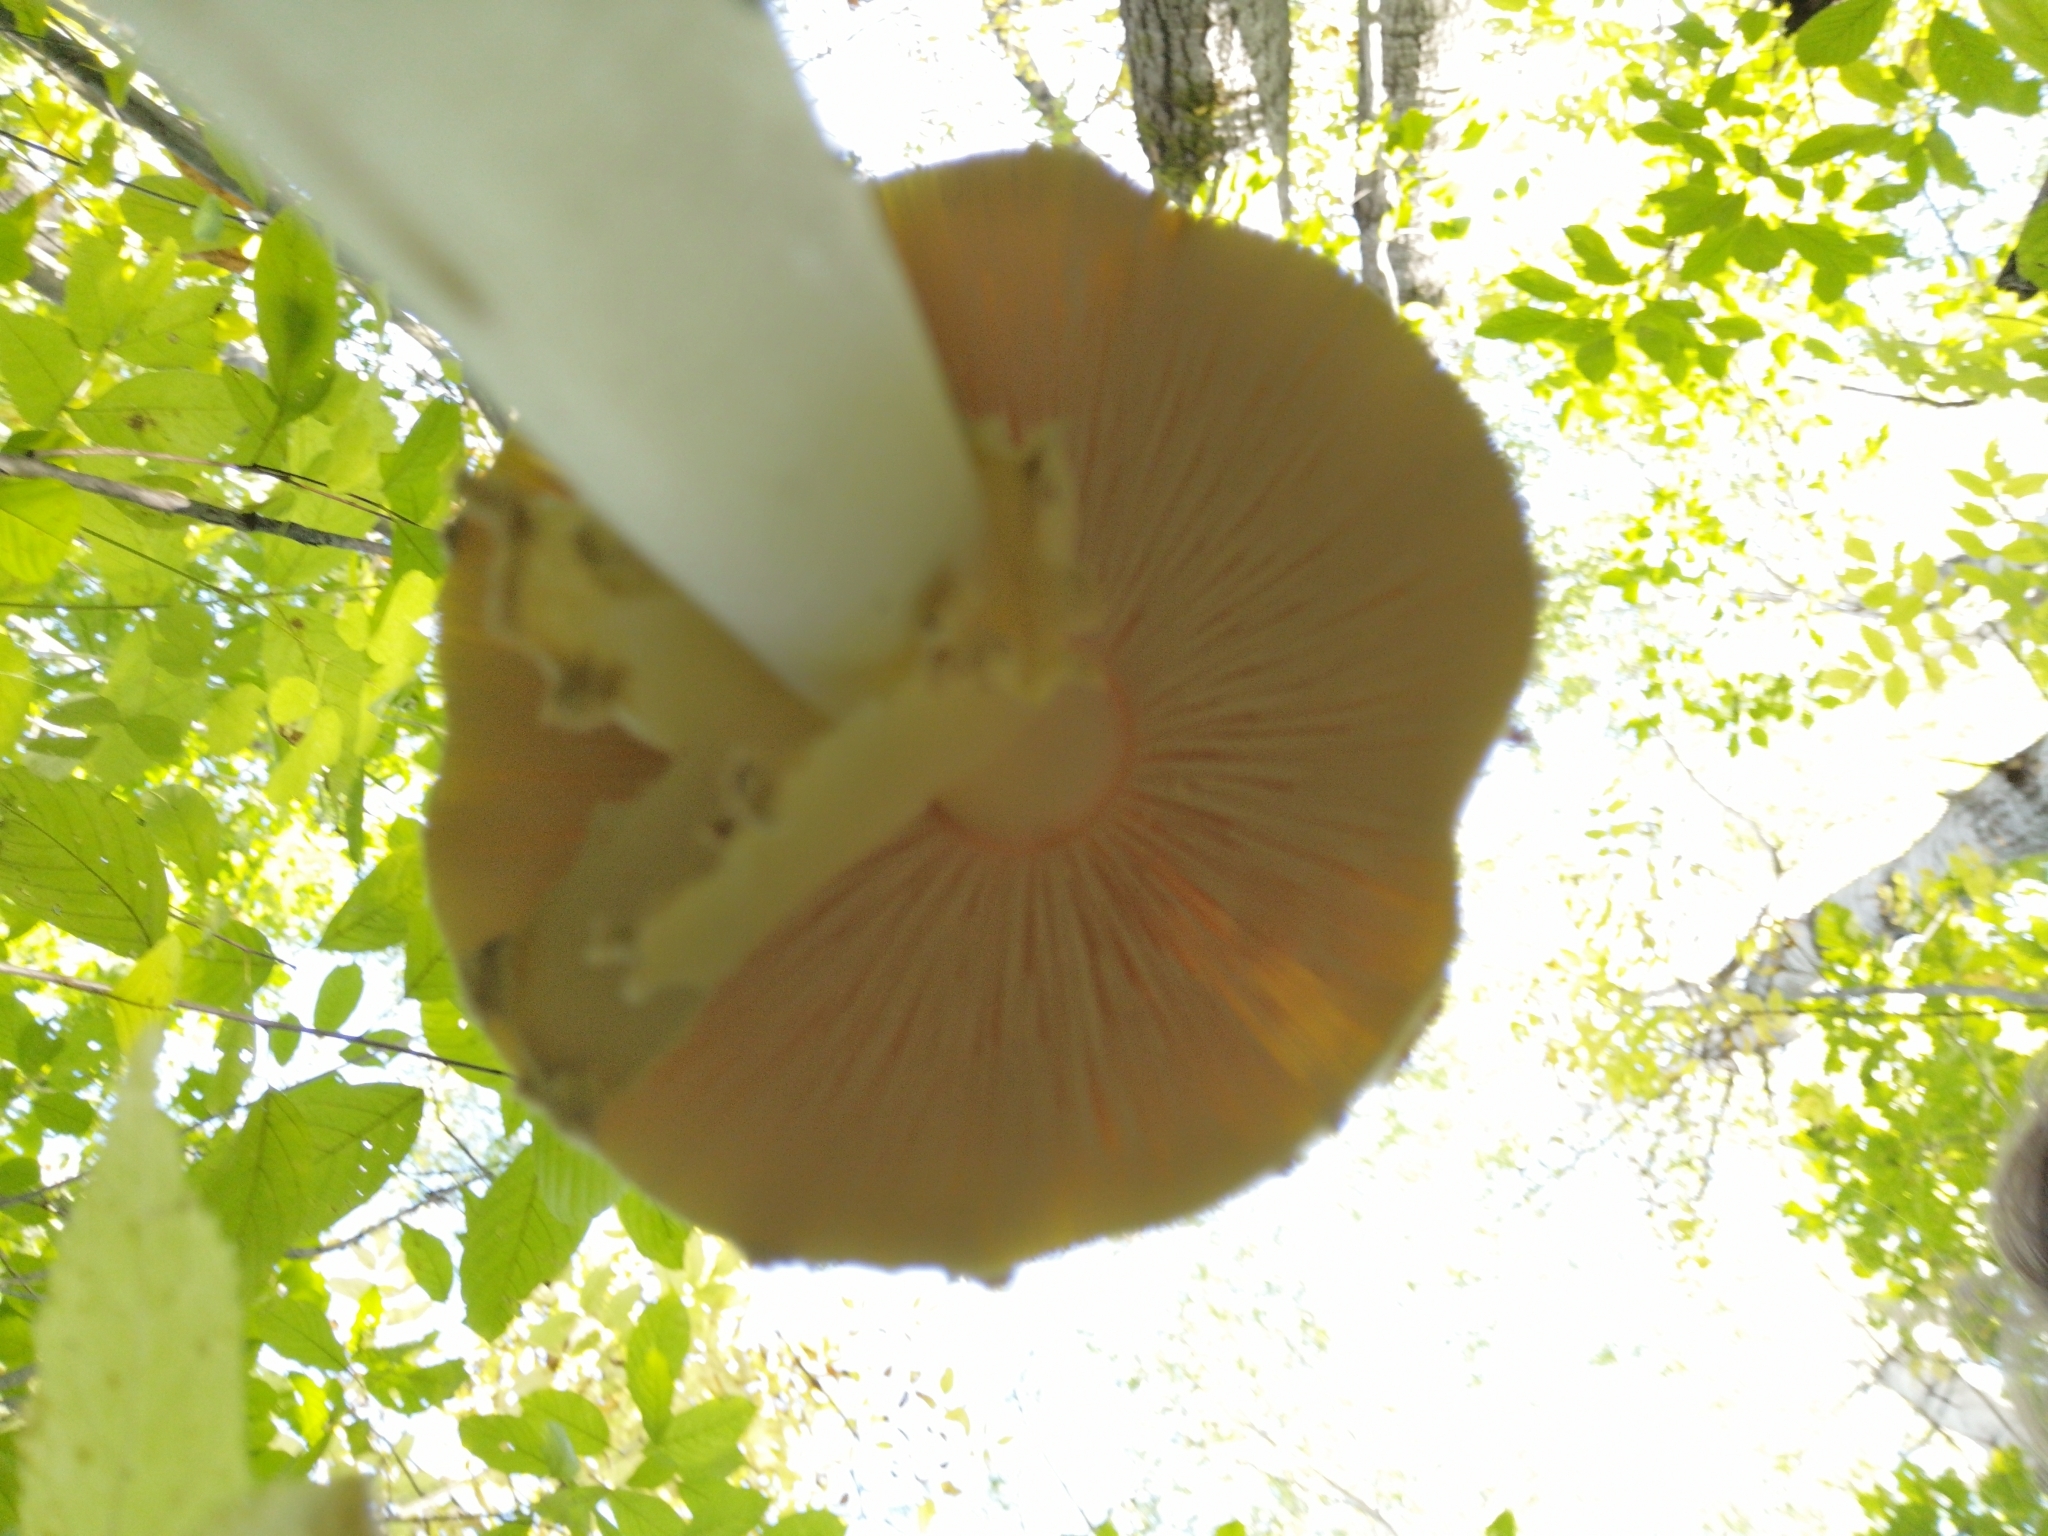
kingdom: Fungi
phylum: Basidiomycota
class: Agaricomycetes
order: Agaricales
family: Amanitaceae
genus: Amanita
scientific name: Amanita muscaria
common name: Fly agaric
